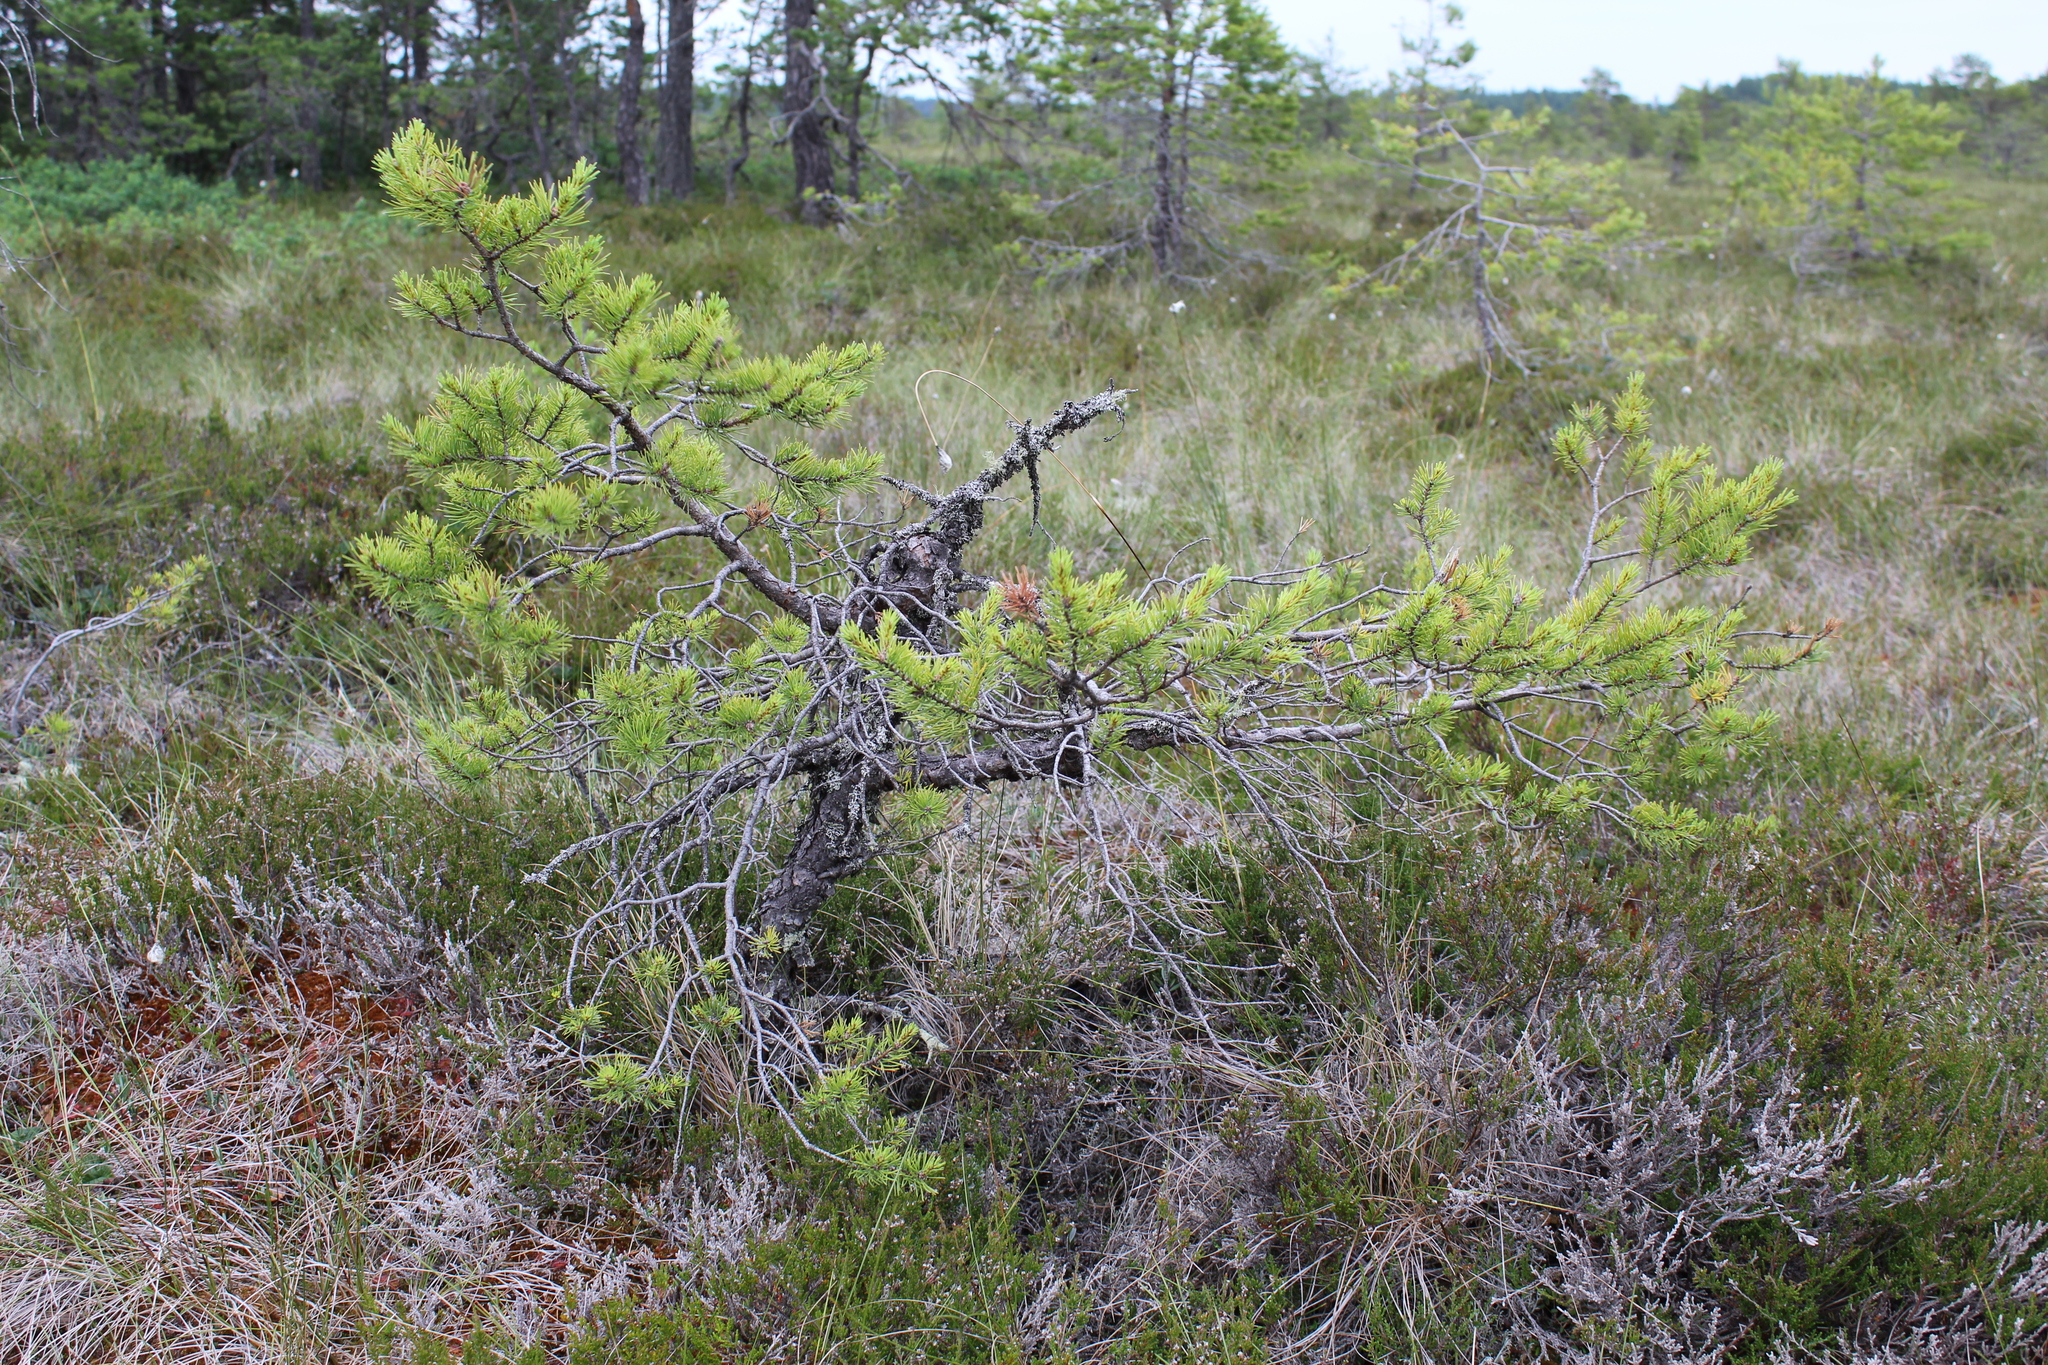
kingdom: Plantae
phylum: Tracheophyta
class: Pinopsida
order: Pinales
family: Pinaceae
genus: Pinus
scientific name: Pinus sylvestris
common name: Scots pine
